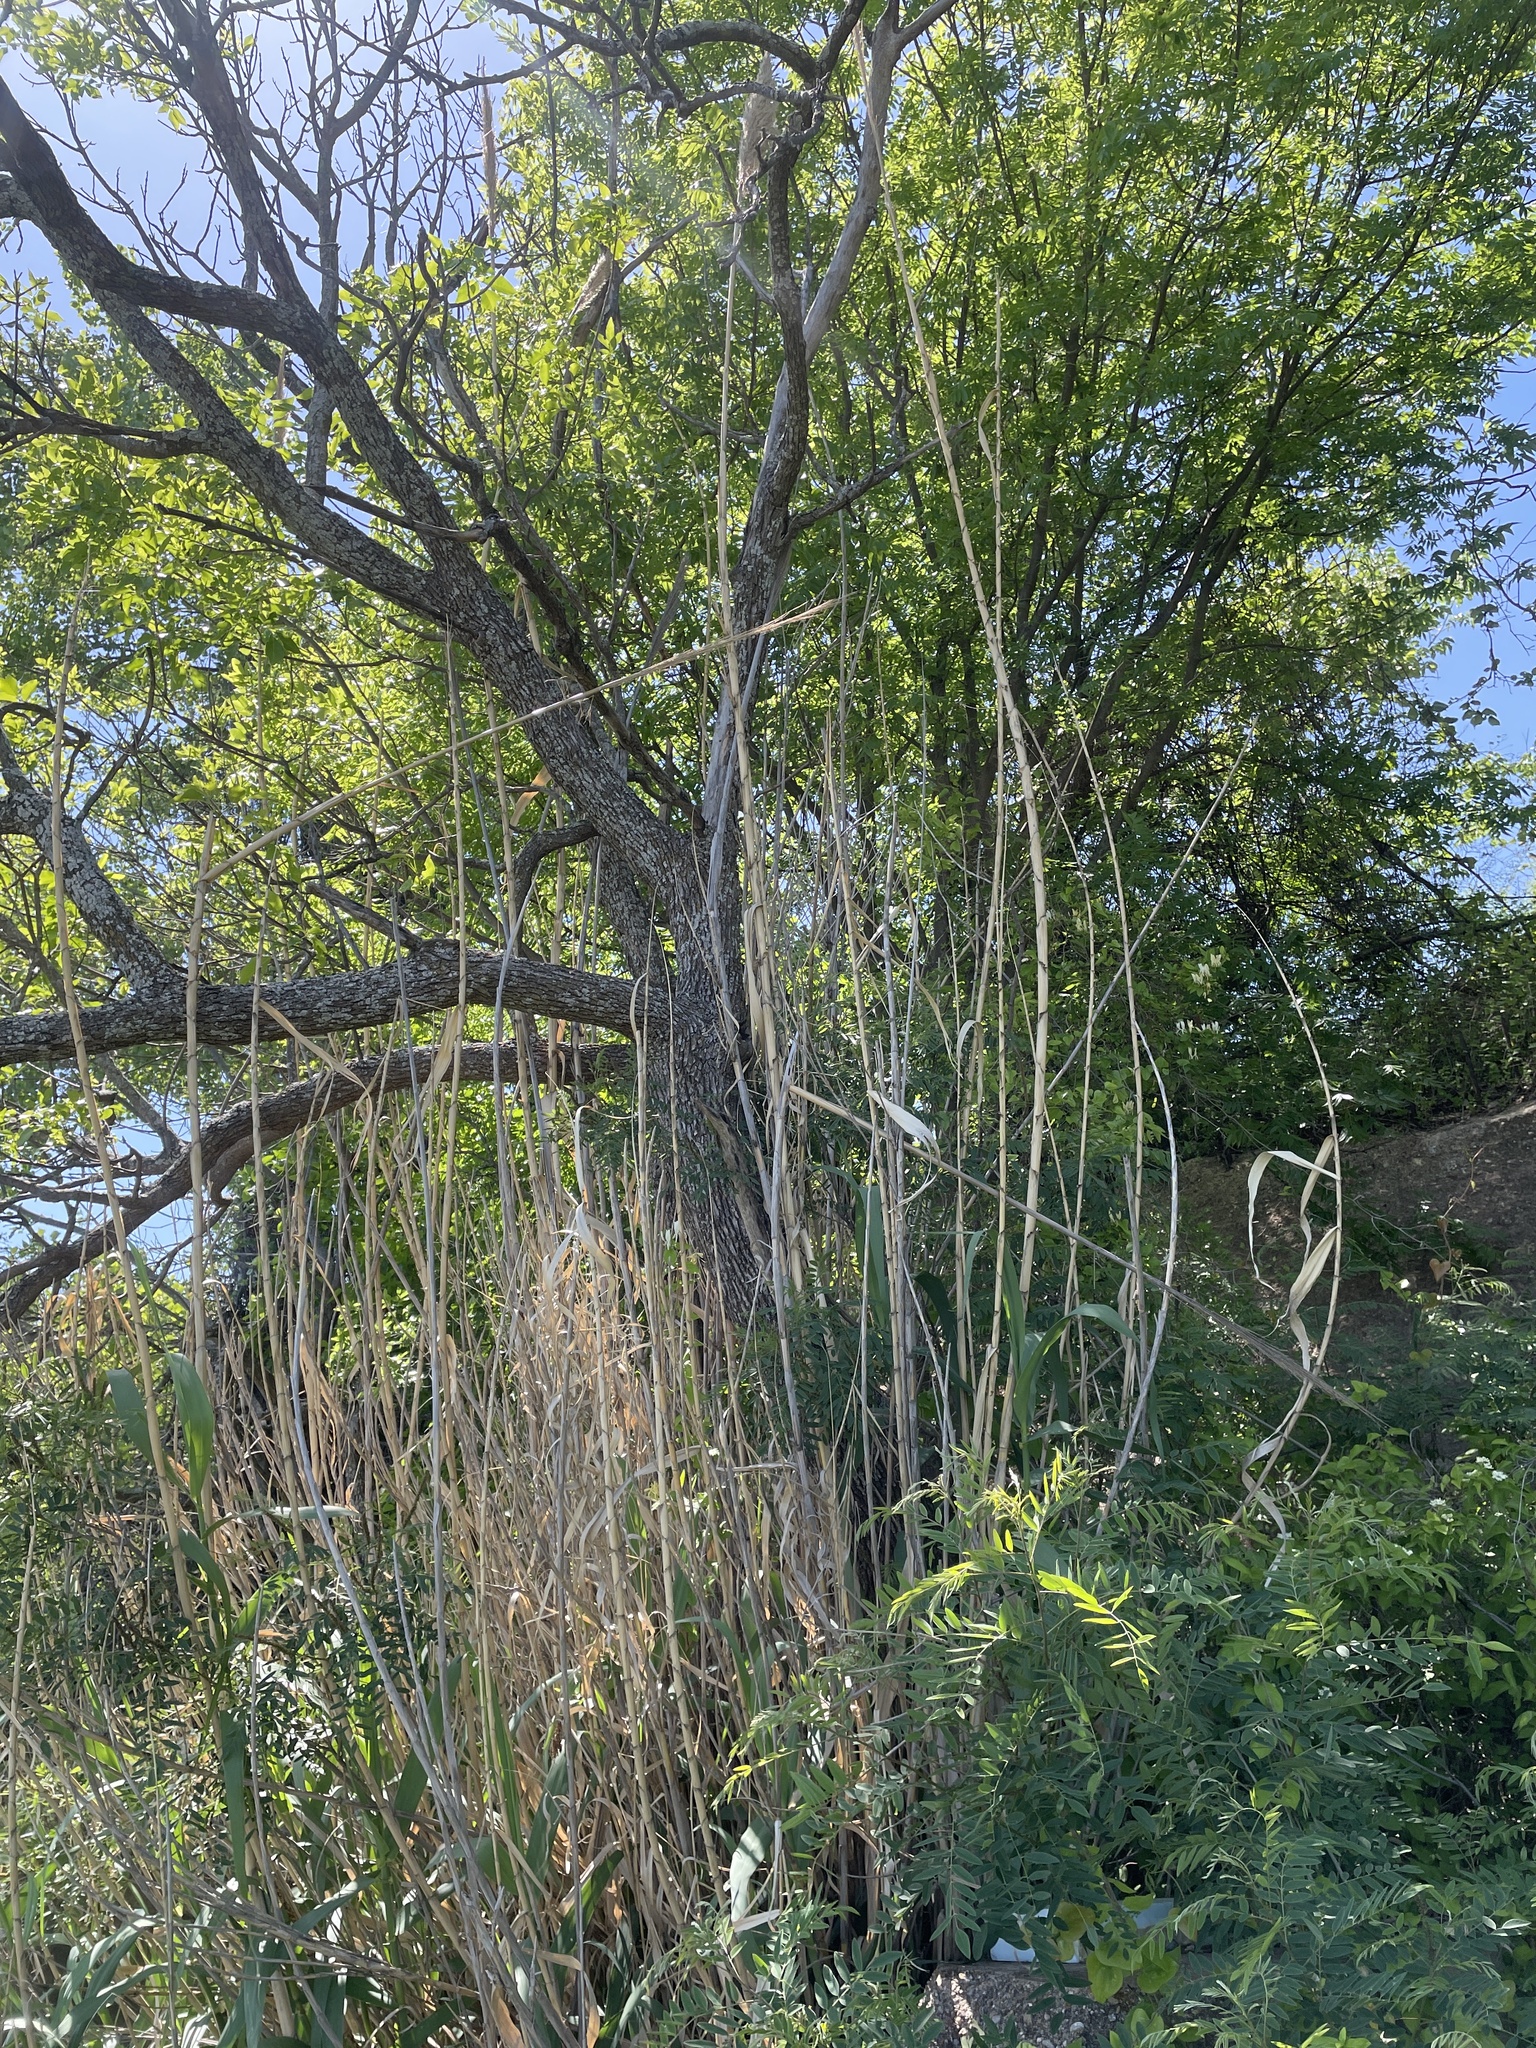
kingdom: Plantae
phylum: Tracheophyta
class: Liliopsida
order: Poales
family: Poaceae
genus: Arundo
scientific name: Arundo donax
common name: Giant reed
